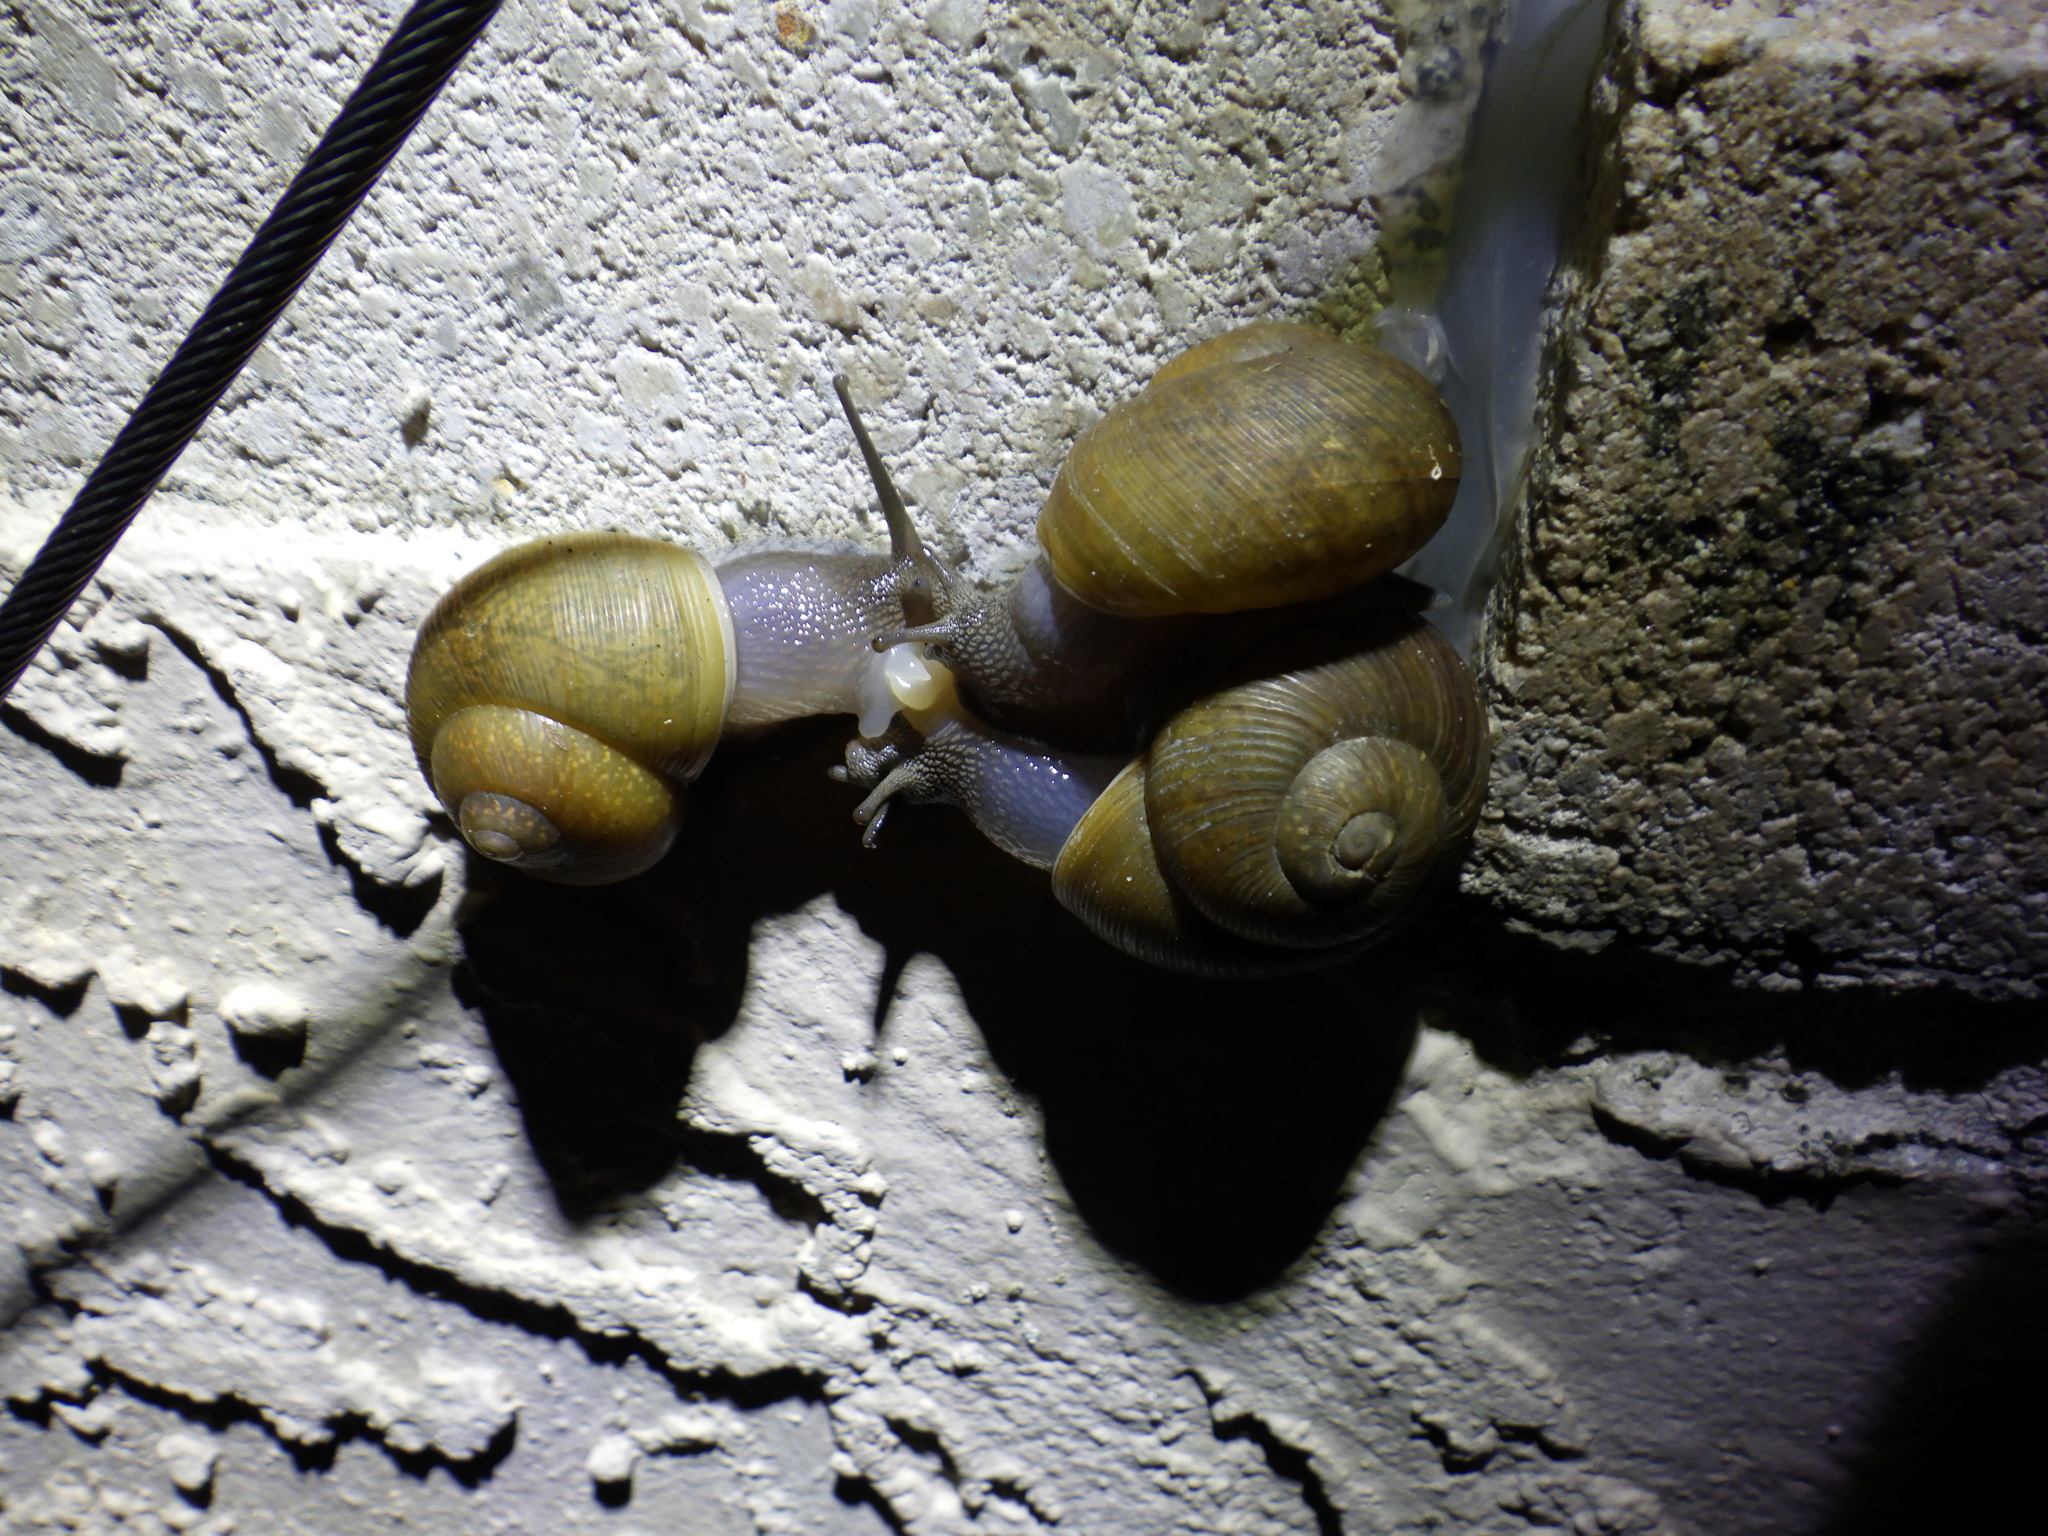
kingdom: Animalia
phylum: Mollusca
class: Gastropoda
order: Stylommatophora
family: Zachrysiidae
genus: Zachrysia
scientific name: Zachrysia provisoria
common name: Garden zachrysia
